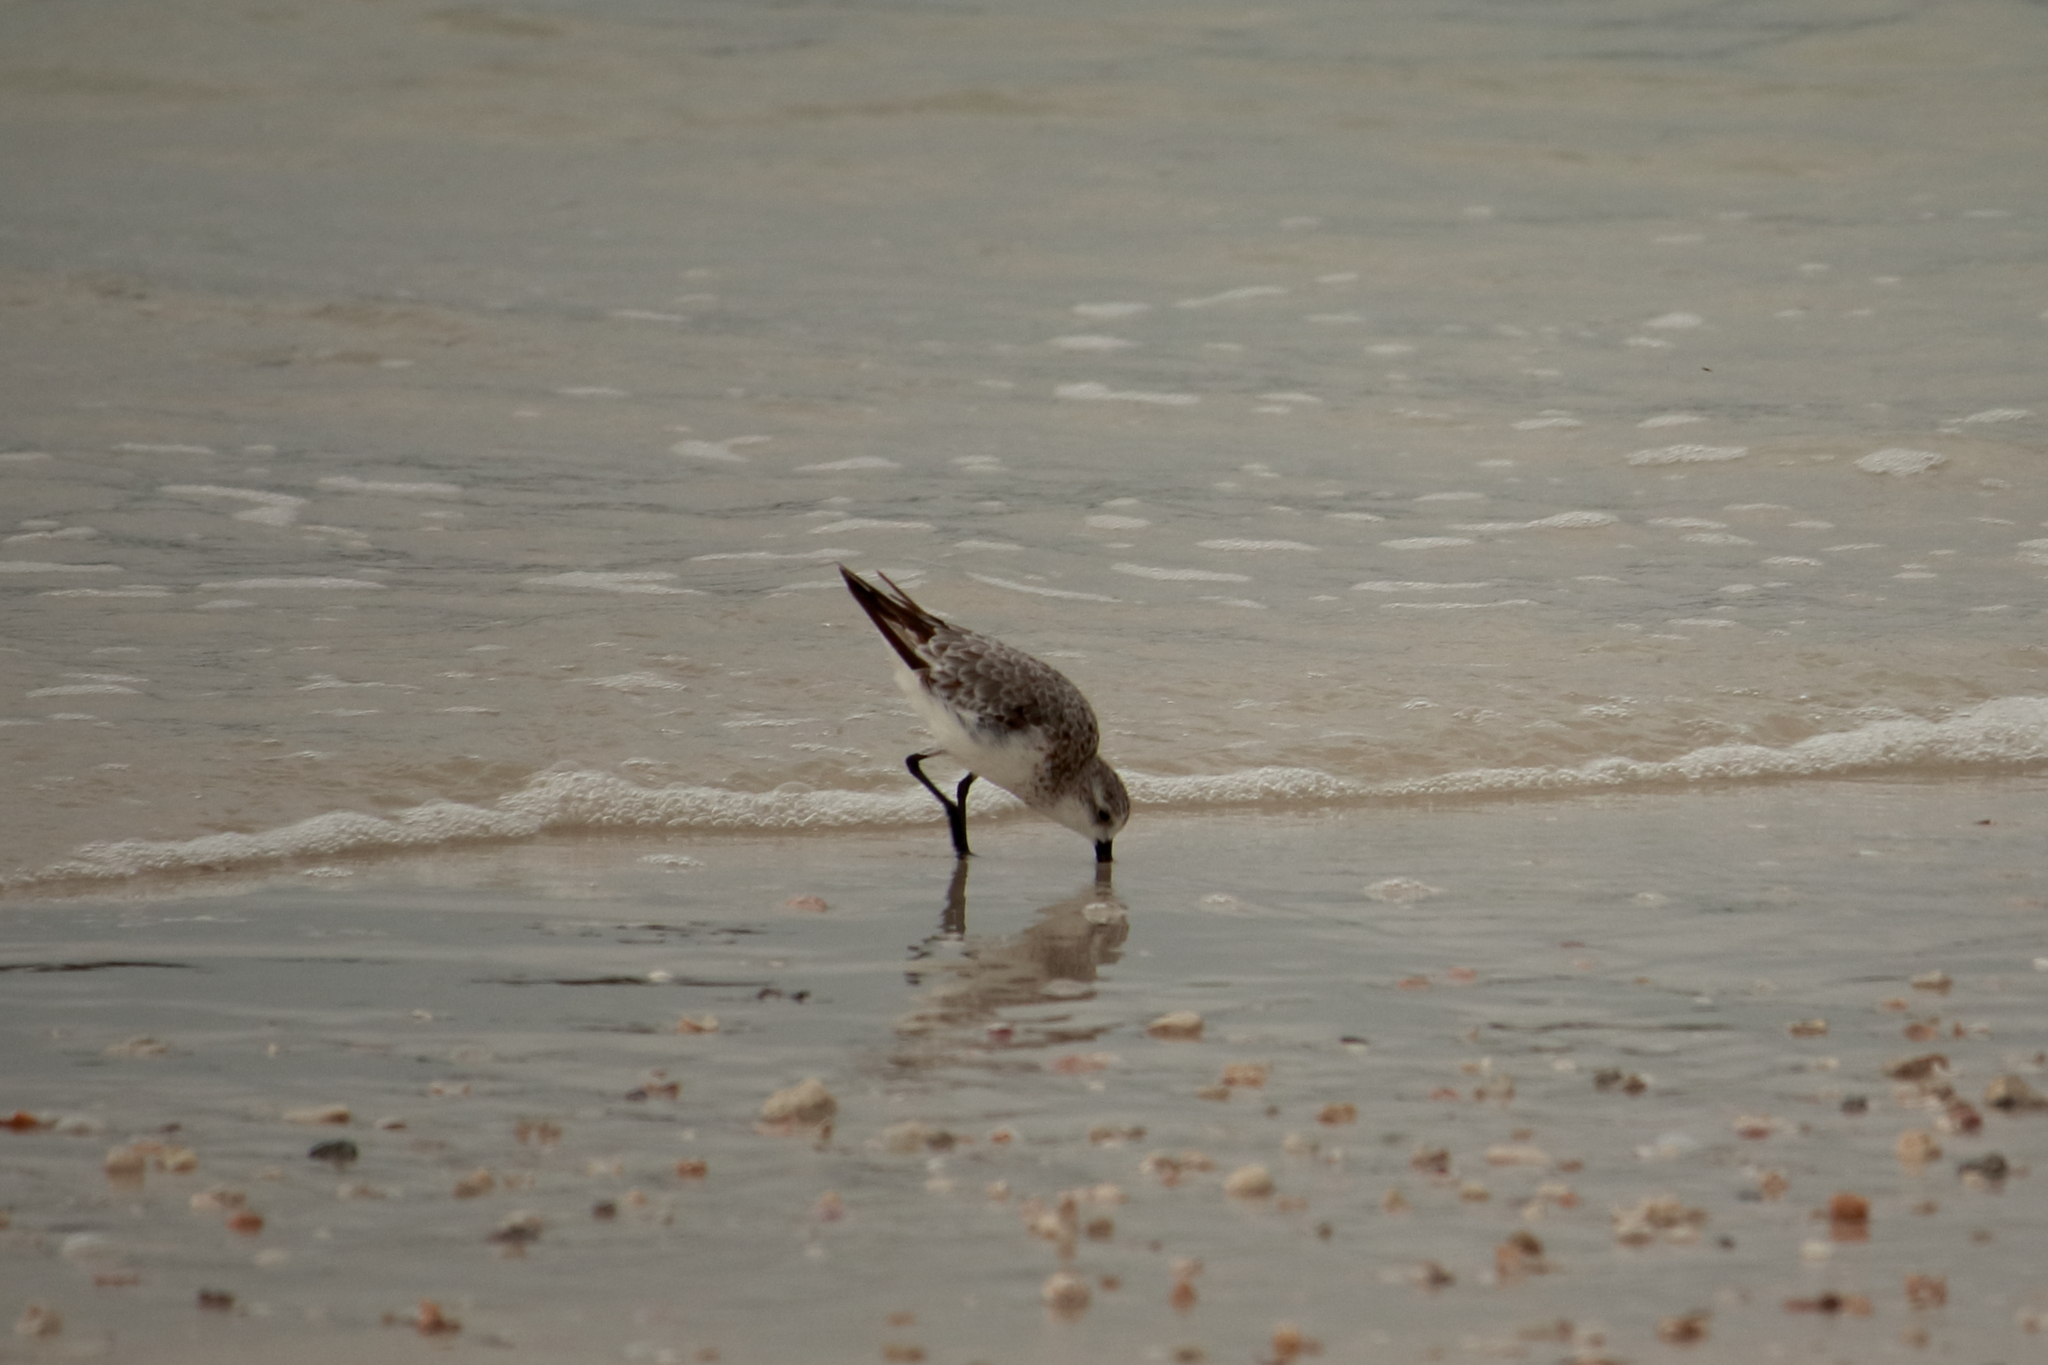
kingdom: Animalia
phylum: Chordata
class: Aves
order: Charadriiformes
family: Scolopacidae
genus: Calidris
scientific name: Calidris alba
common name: Sanderling
